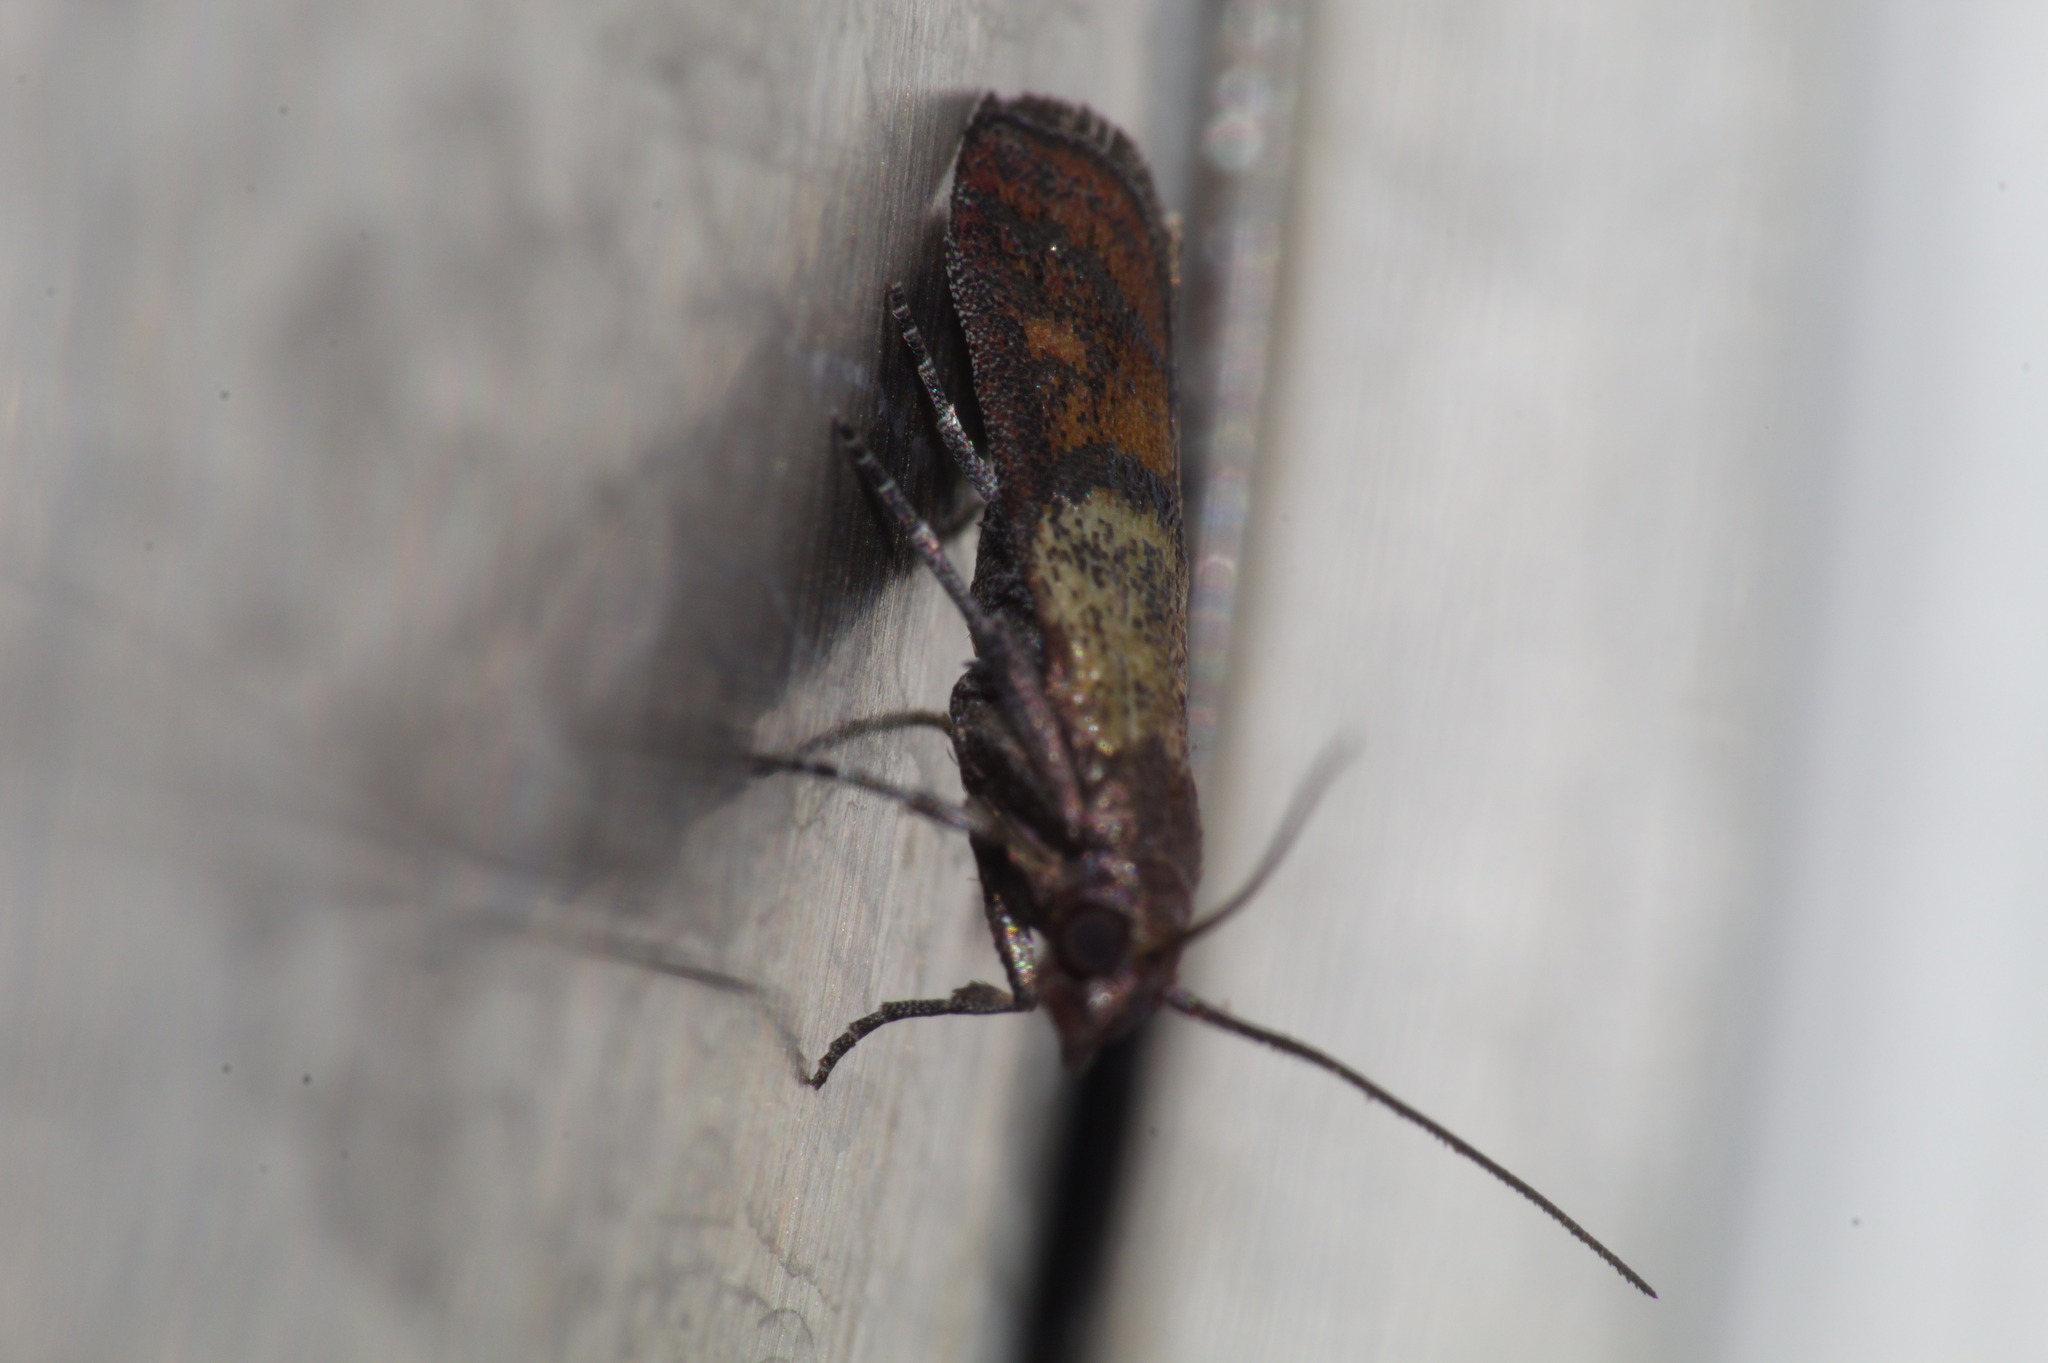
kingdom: Animalia
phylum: Arthropoda
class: Insecta
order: Lepidoptera
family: Pyralidae
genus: Plodia
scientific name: Plodia interpunctella
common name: Indian meal moth
